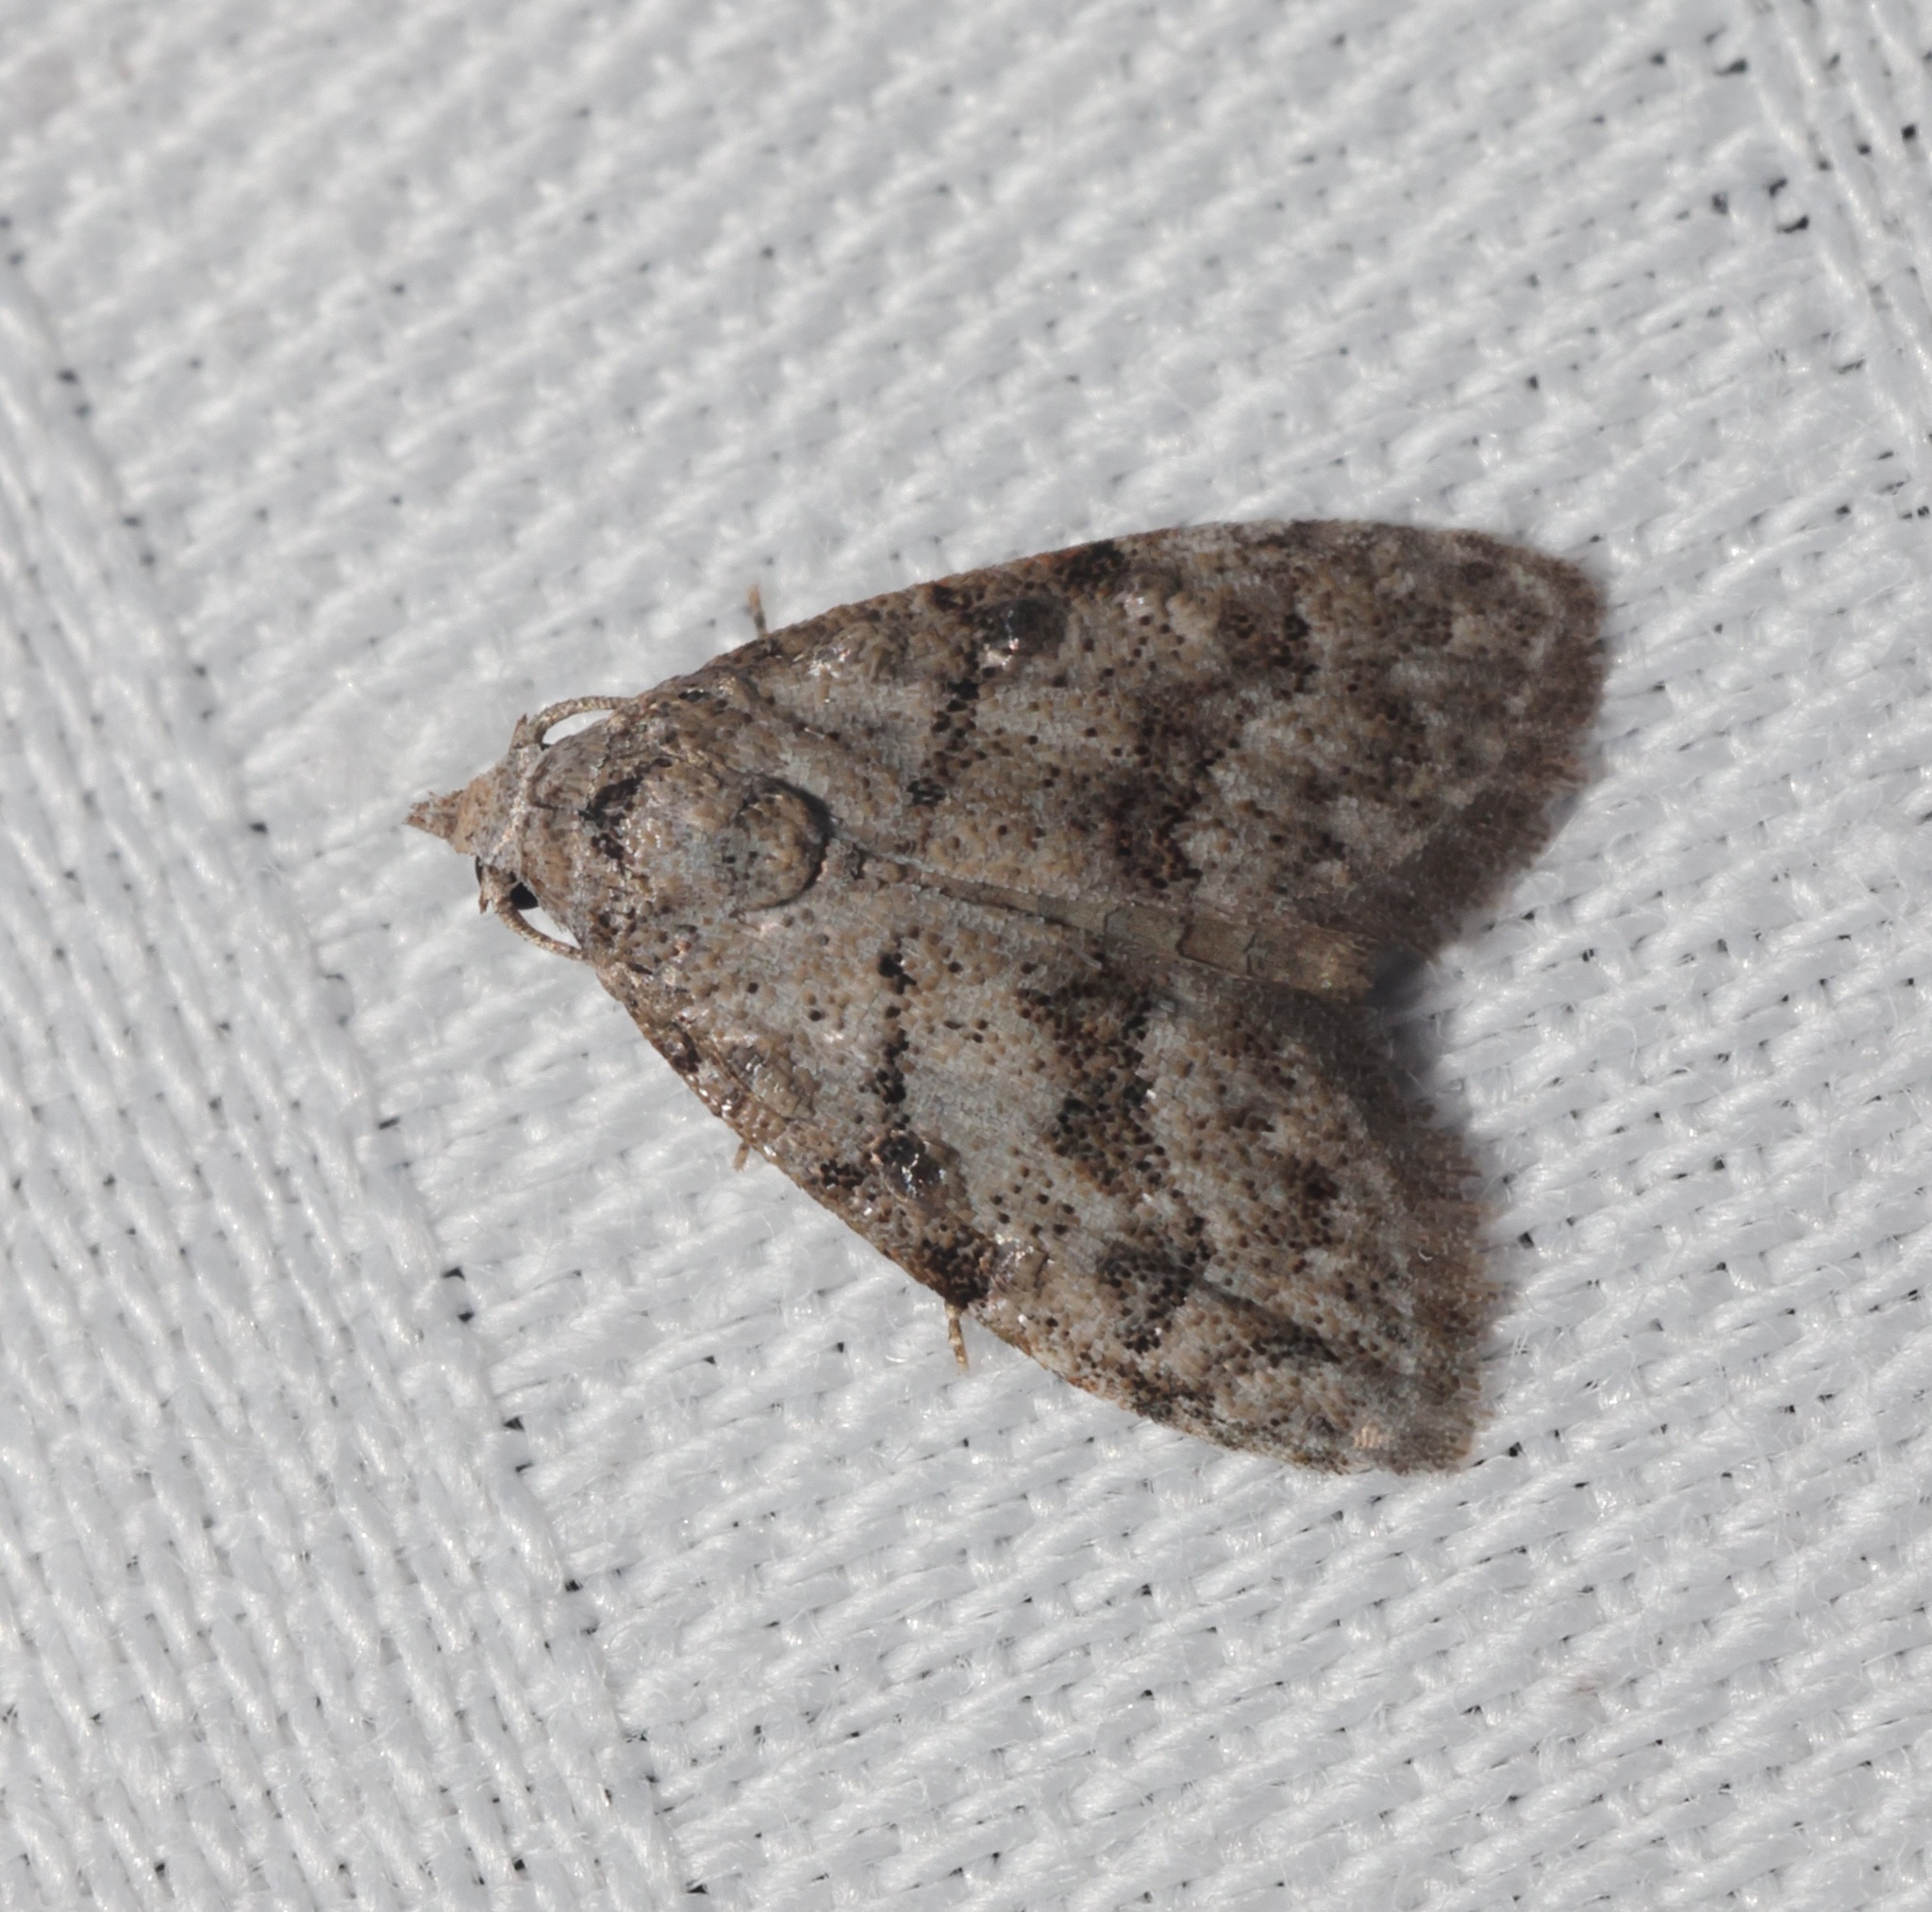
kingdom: Animalia
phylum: Arthropoda
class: Insecta
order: Lepidoptera
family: Nolidae
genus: Inouenola
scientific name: Inouenola pallescens
